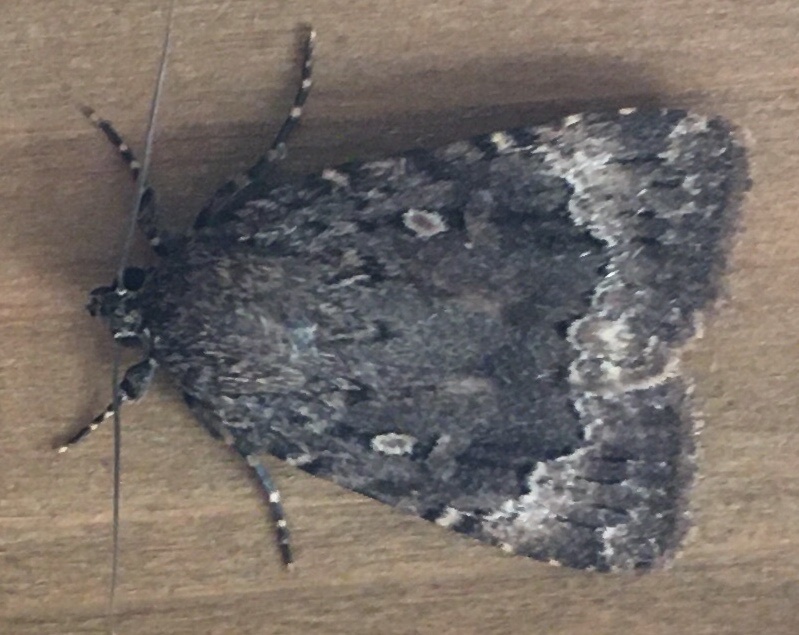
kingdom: Animalia
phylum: Arthropoda
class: Insecta
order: Lepidoptera
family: Noctuidae
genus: Amphipyra
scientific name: Amphipyra pyramidoides
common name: American copper underwing
